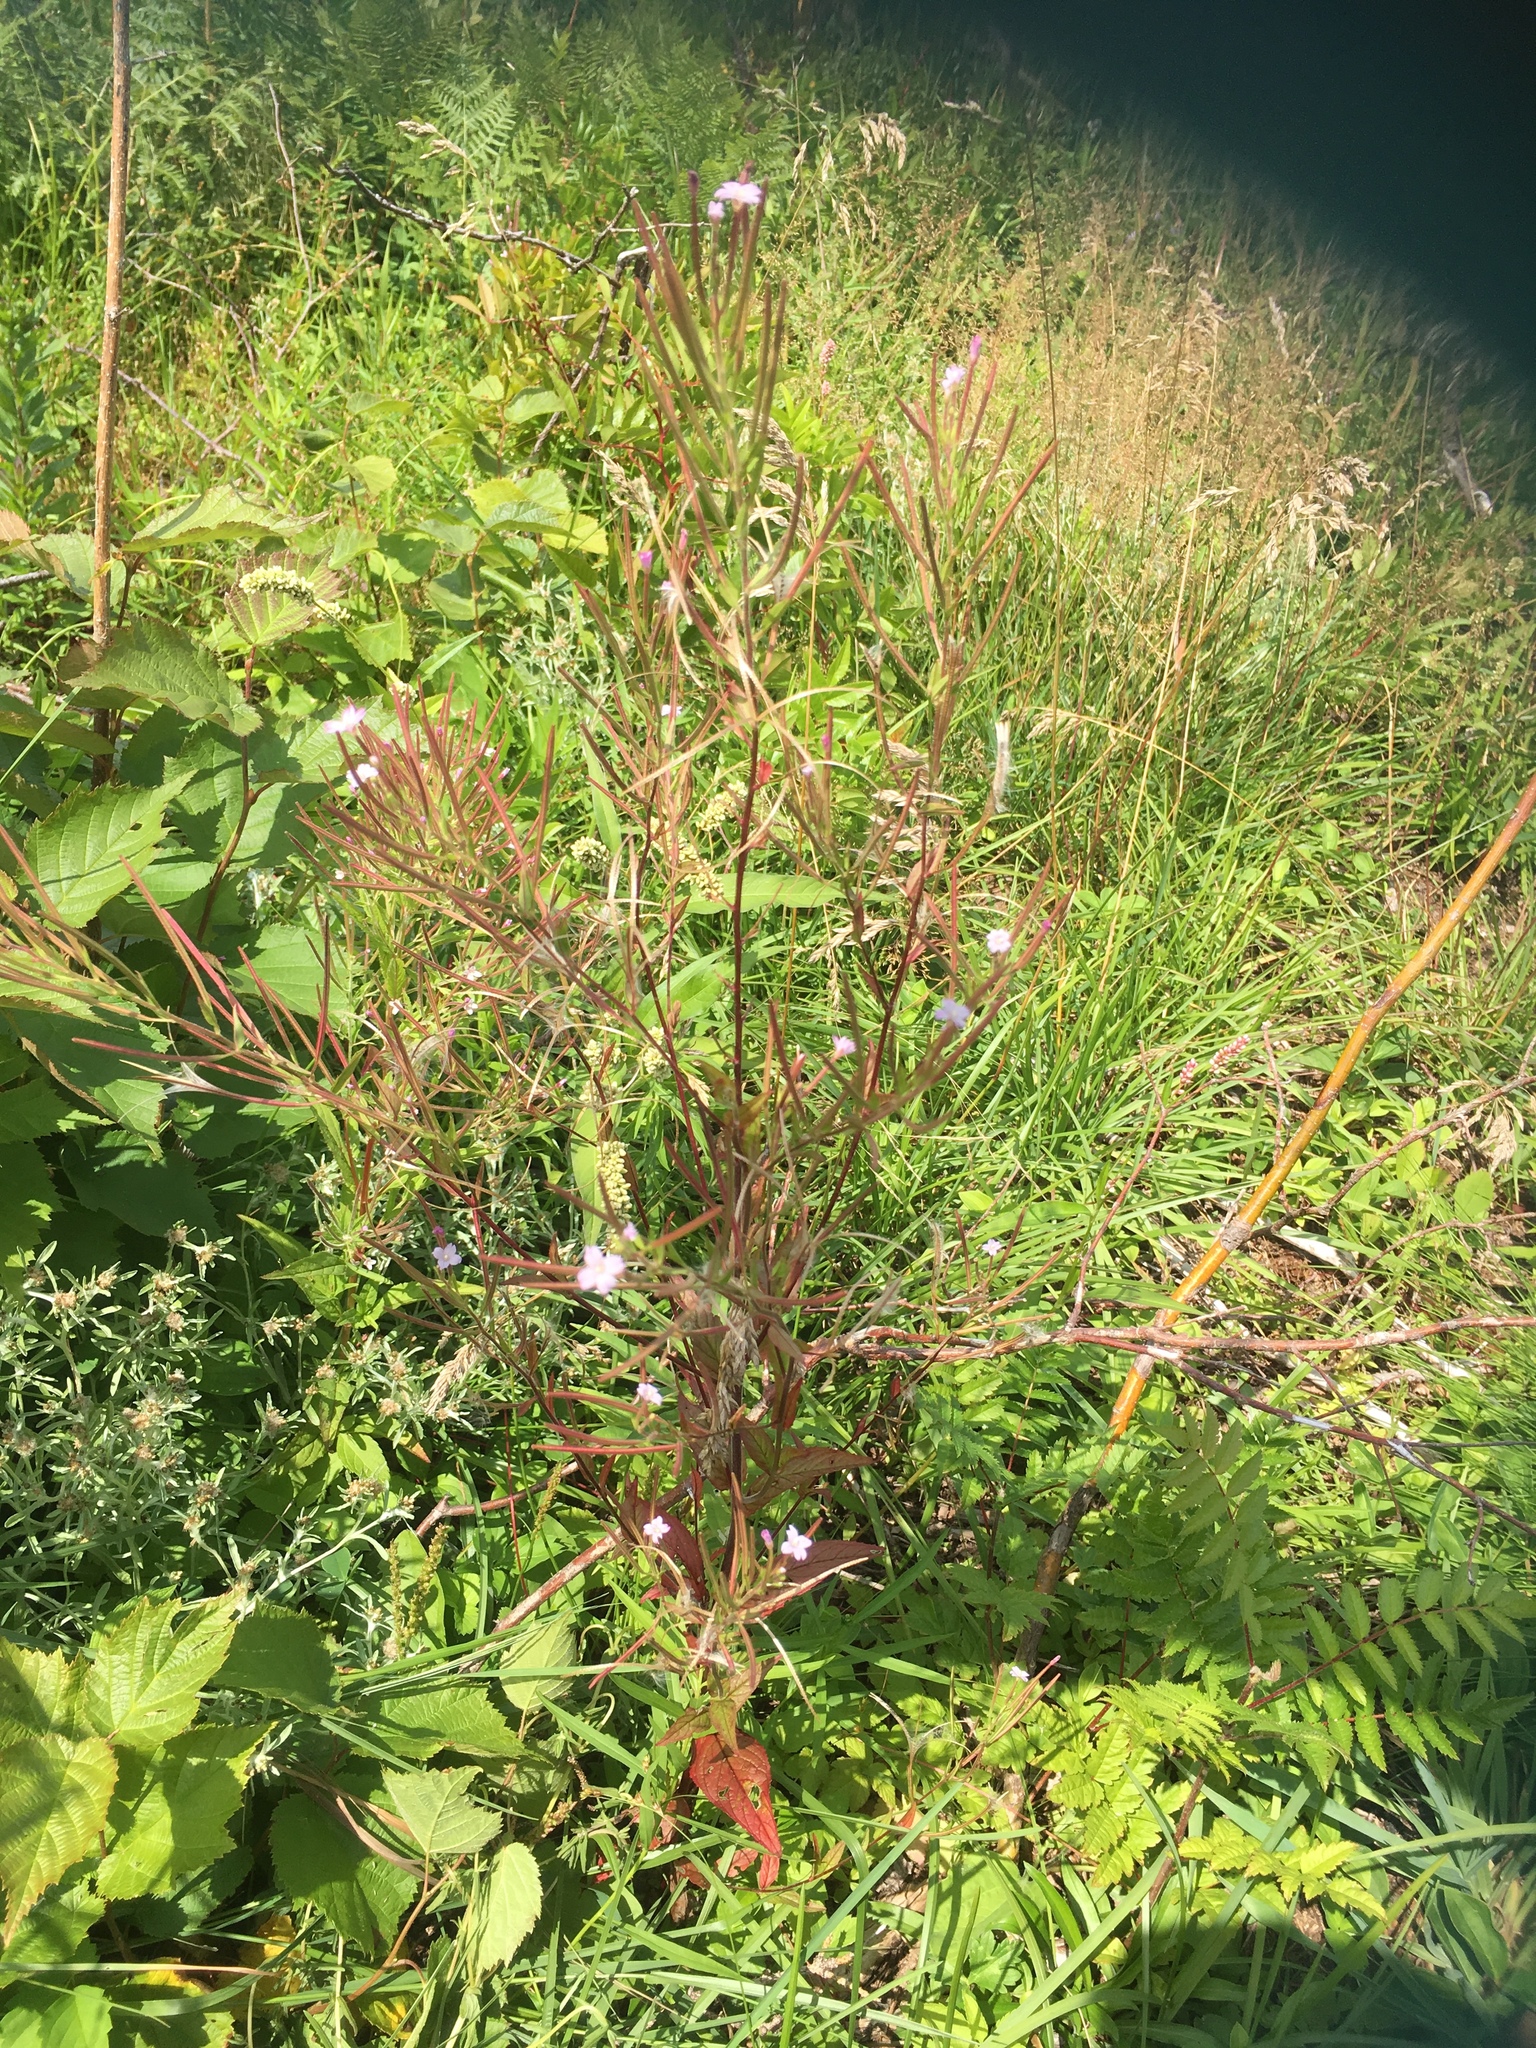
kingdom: Plantae
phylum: Tracheophyta
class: Magnoliopsida
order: Myrtales
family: Onagraceae
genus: Epilobium
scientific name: Epilobium ciliatum
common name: American willowherb
